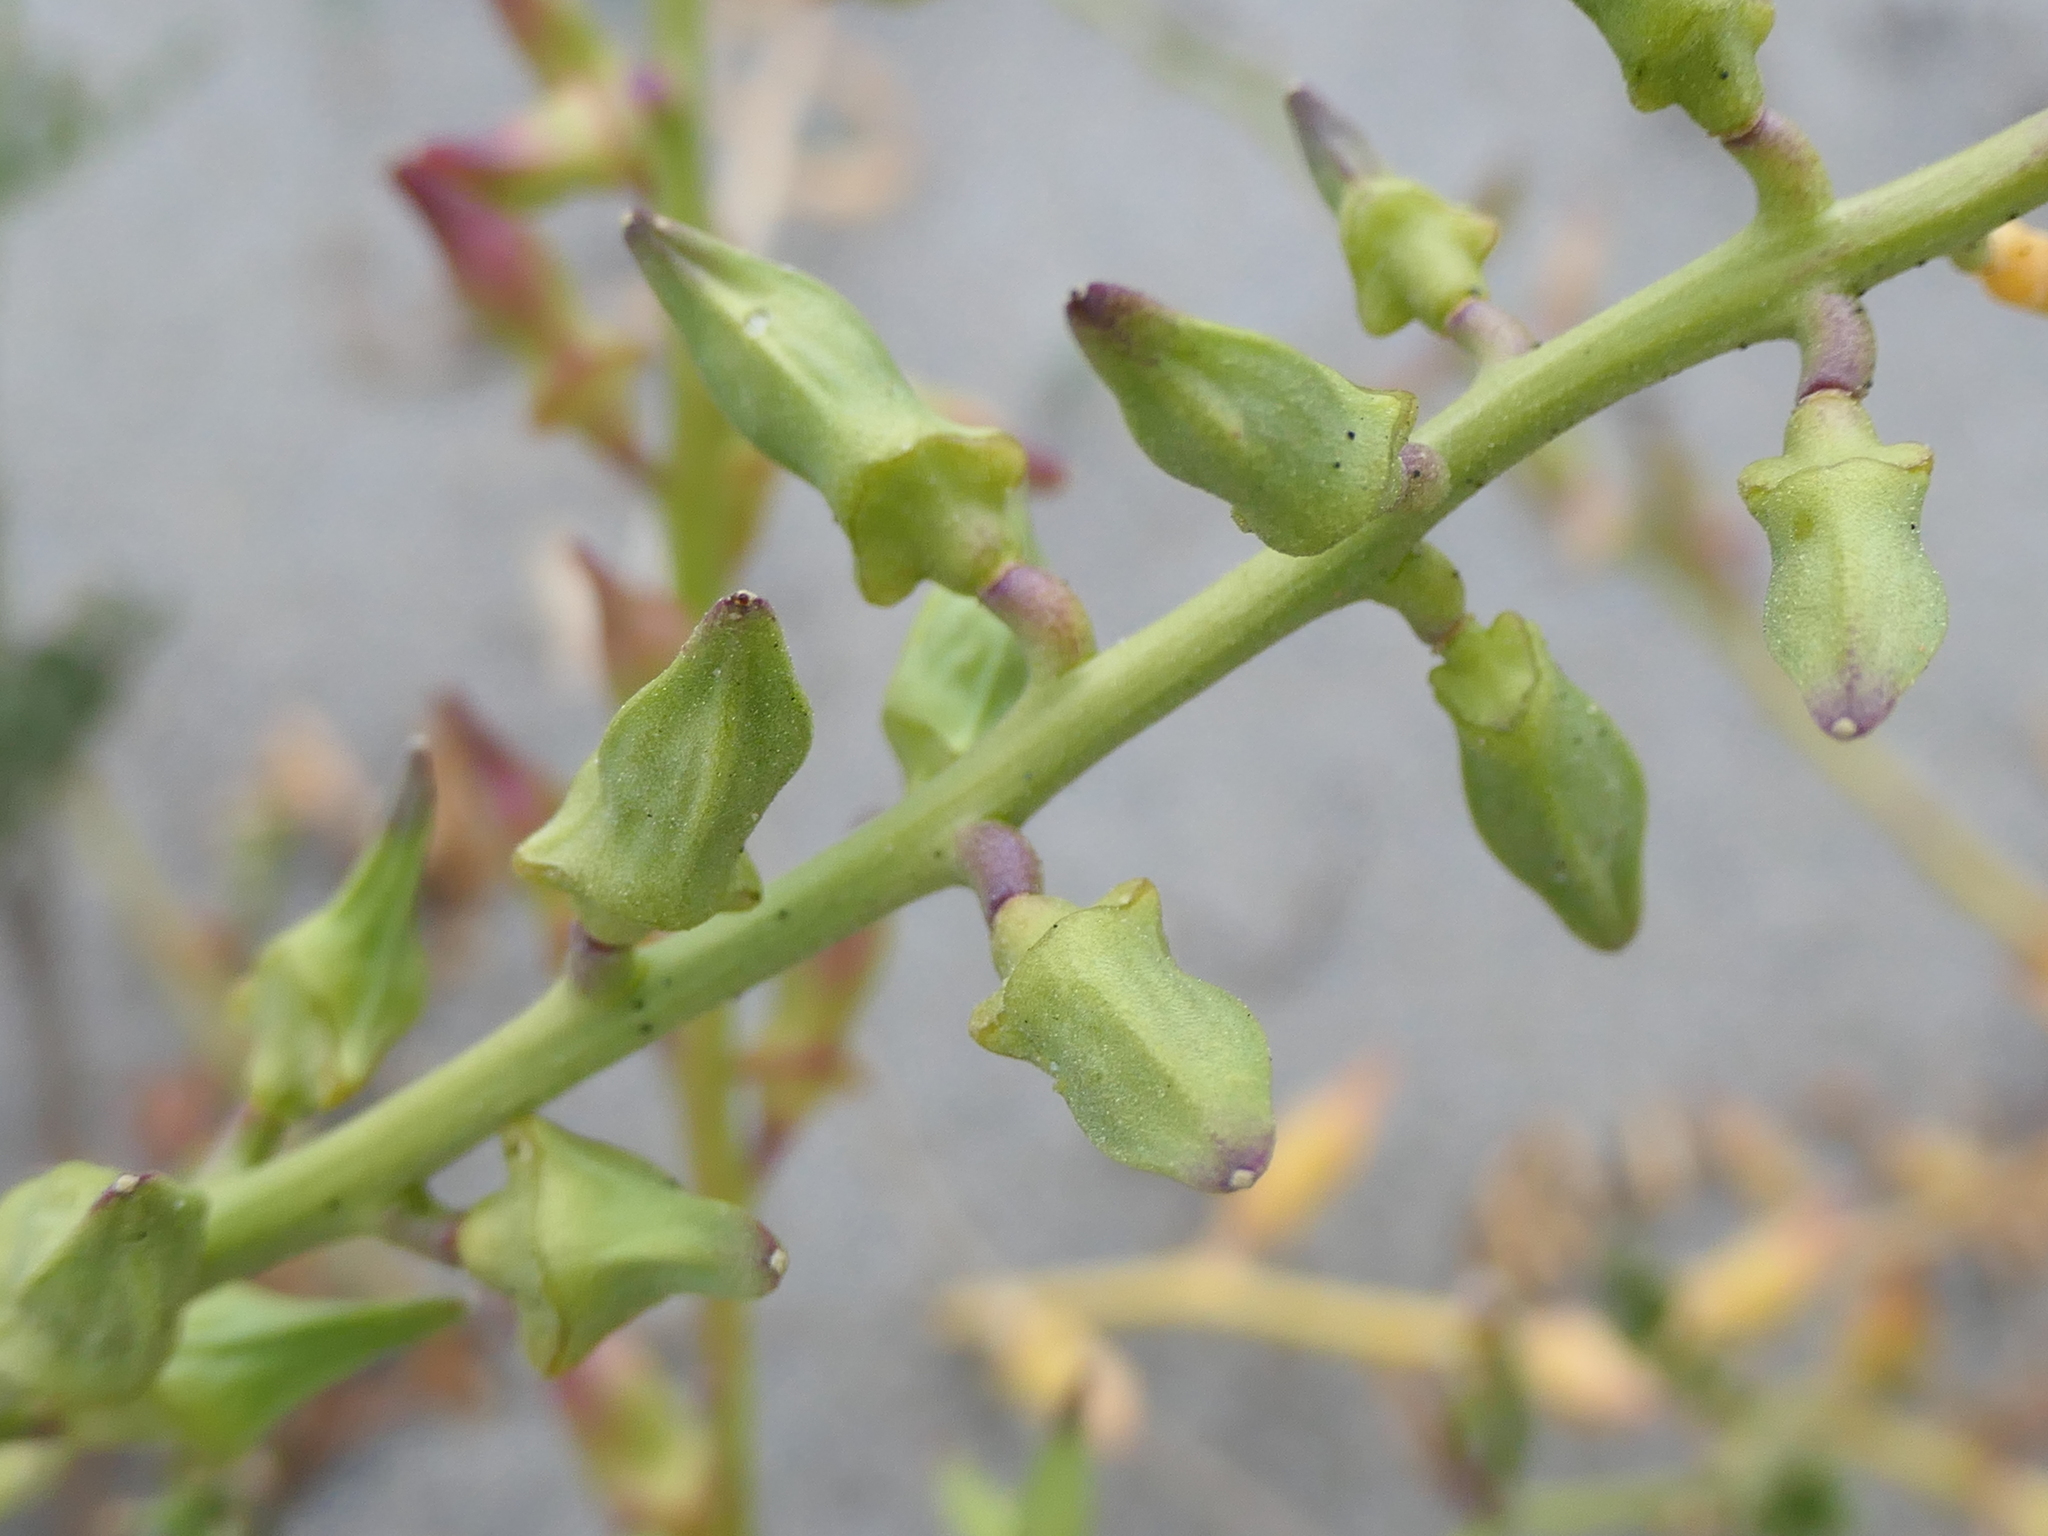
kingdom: Plantae
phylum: Tracheophyta
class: Magnoliopsida
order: Brassicales
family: Brassicaceae
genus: Cakile
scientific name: Cakile maritima
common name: Sea rocket
